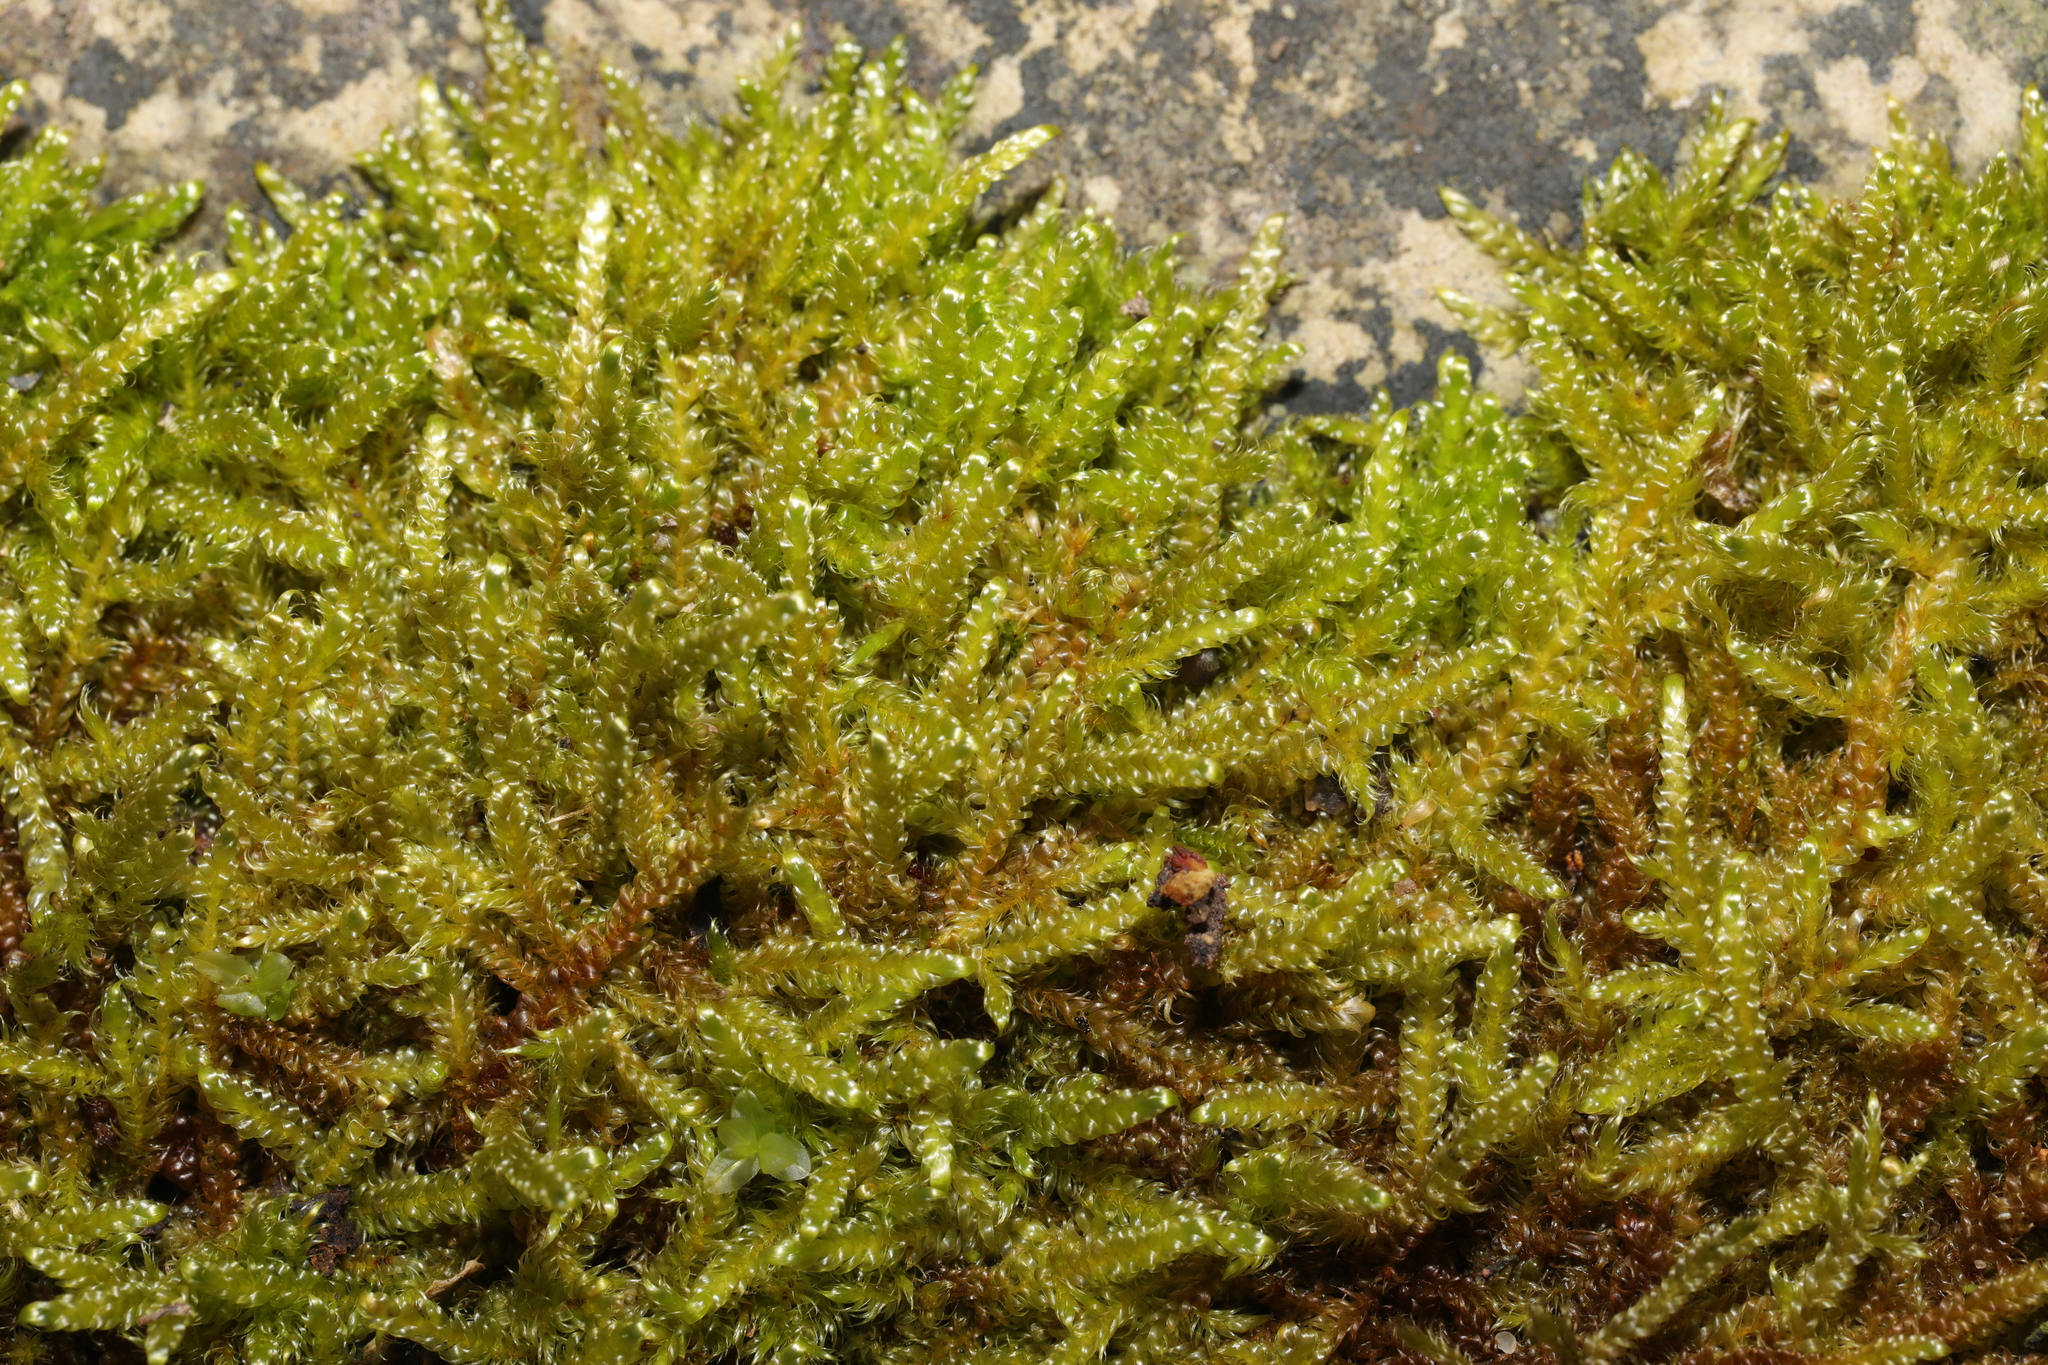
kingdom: Plantae
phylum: Bryophyta
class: Bryopsida
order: Hypnales
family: Hypnaceae
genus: Hypnum
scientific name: Hypnum cupressiforme
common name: Cypress-leaved plait-moss
